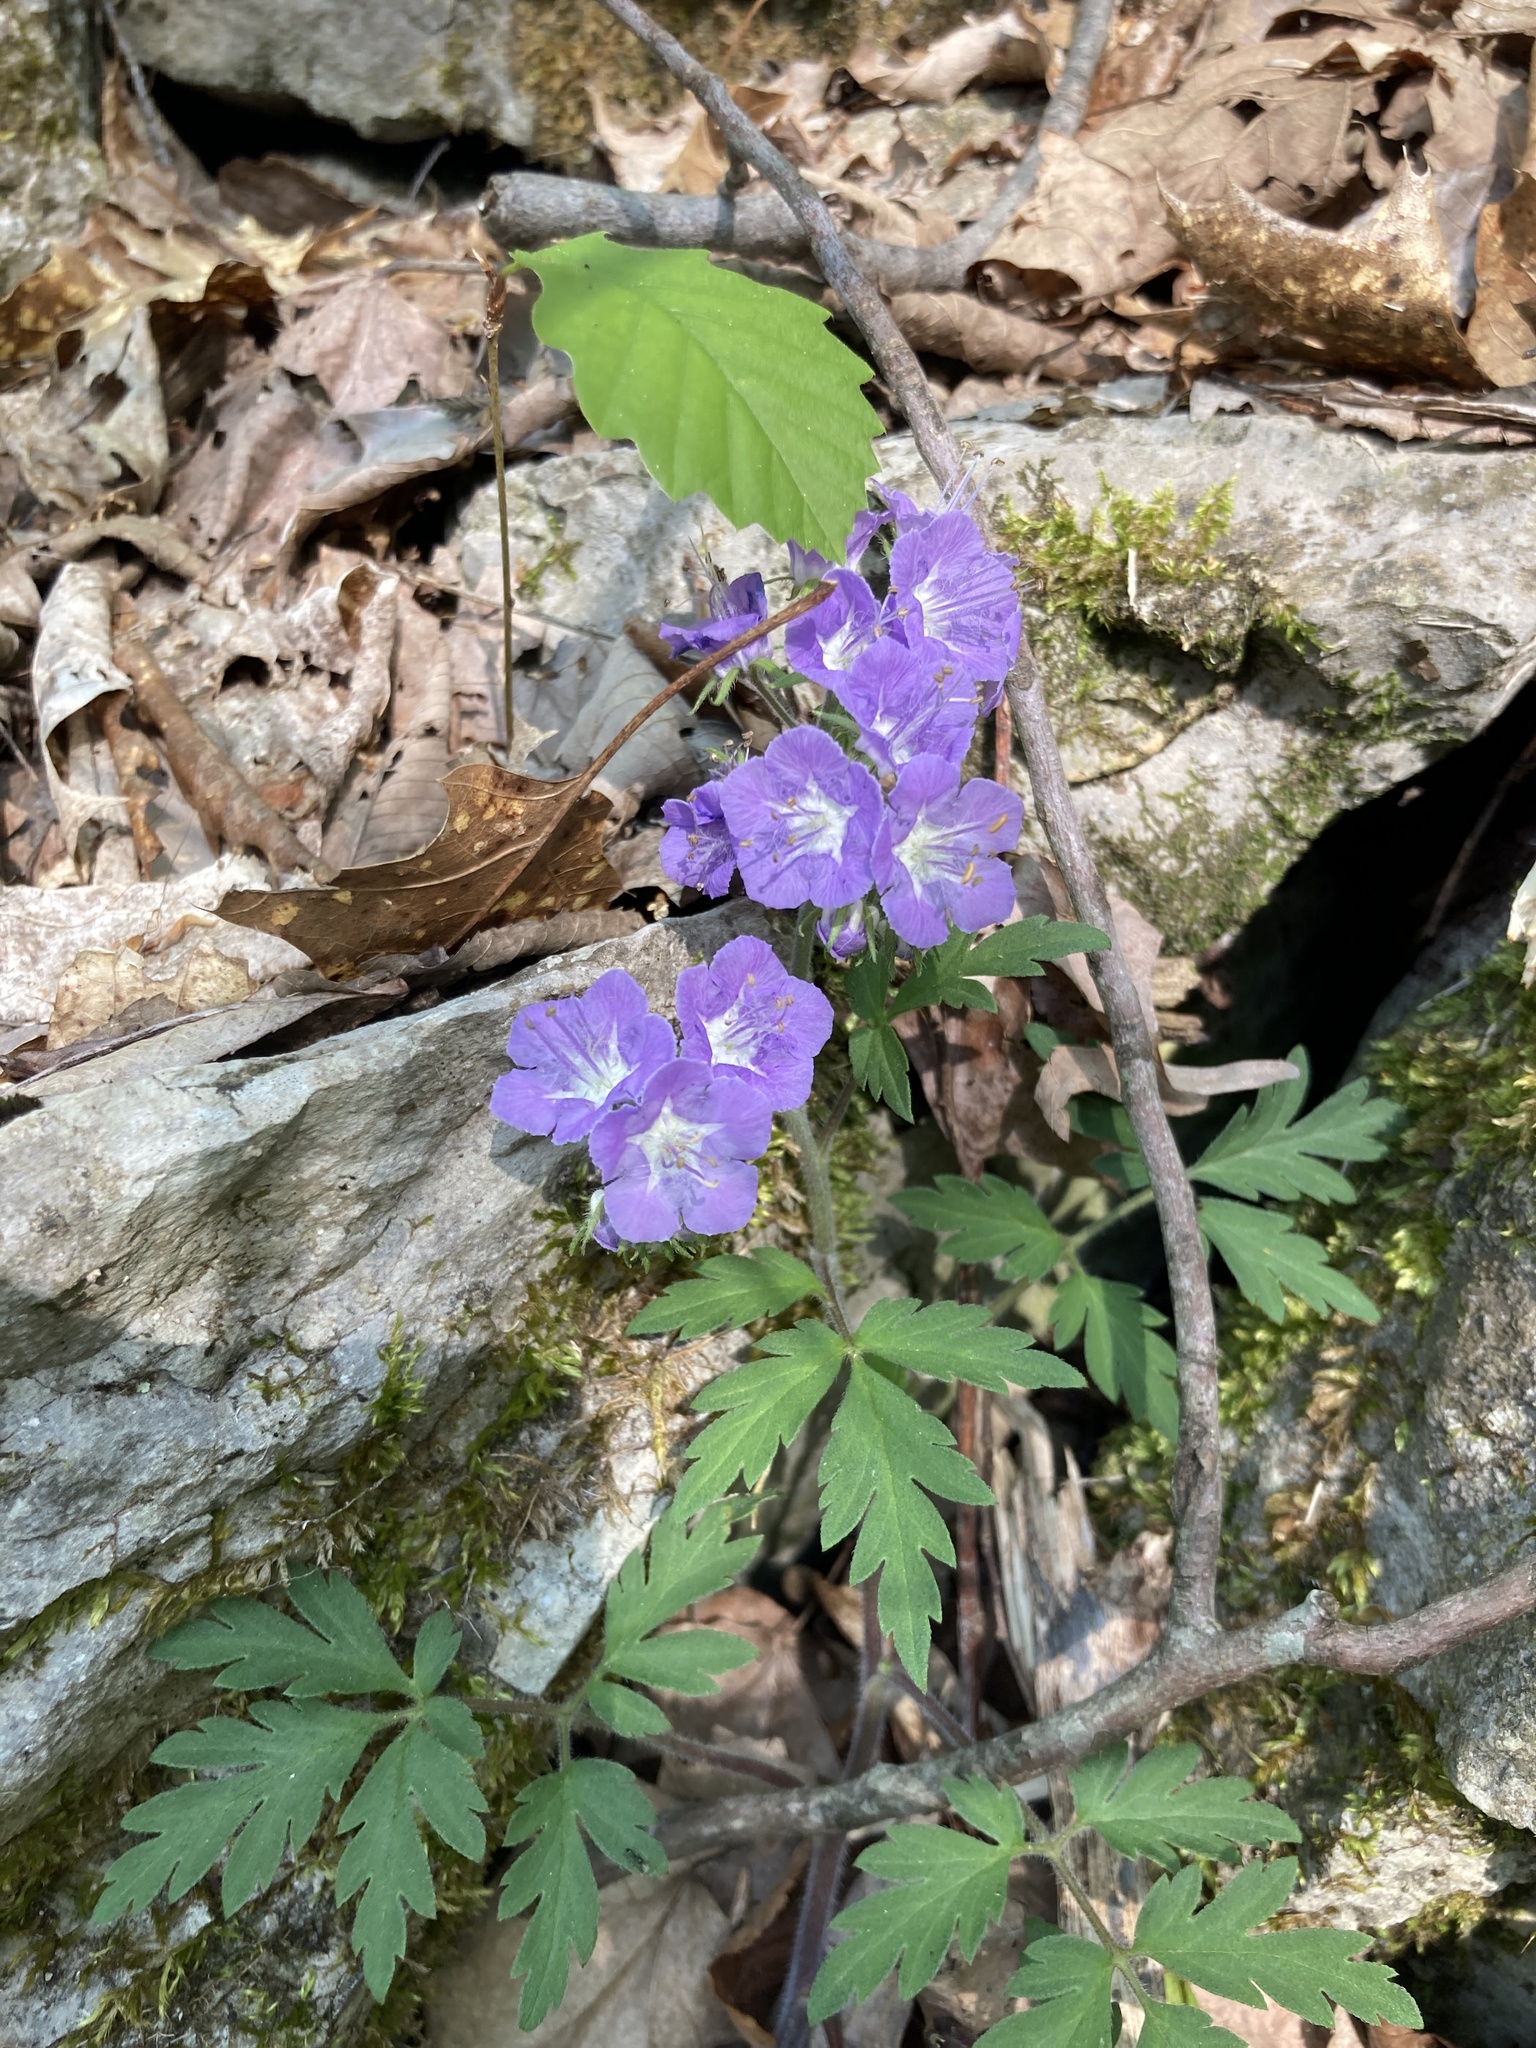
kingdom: Plantae
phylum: Tracheophyta
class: Magnoliopsida
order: Boraginales
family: Hydrophyllaceae
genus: Phacelia
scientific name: Phacelia bipinnatifida
